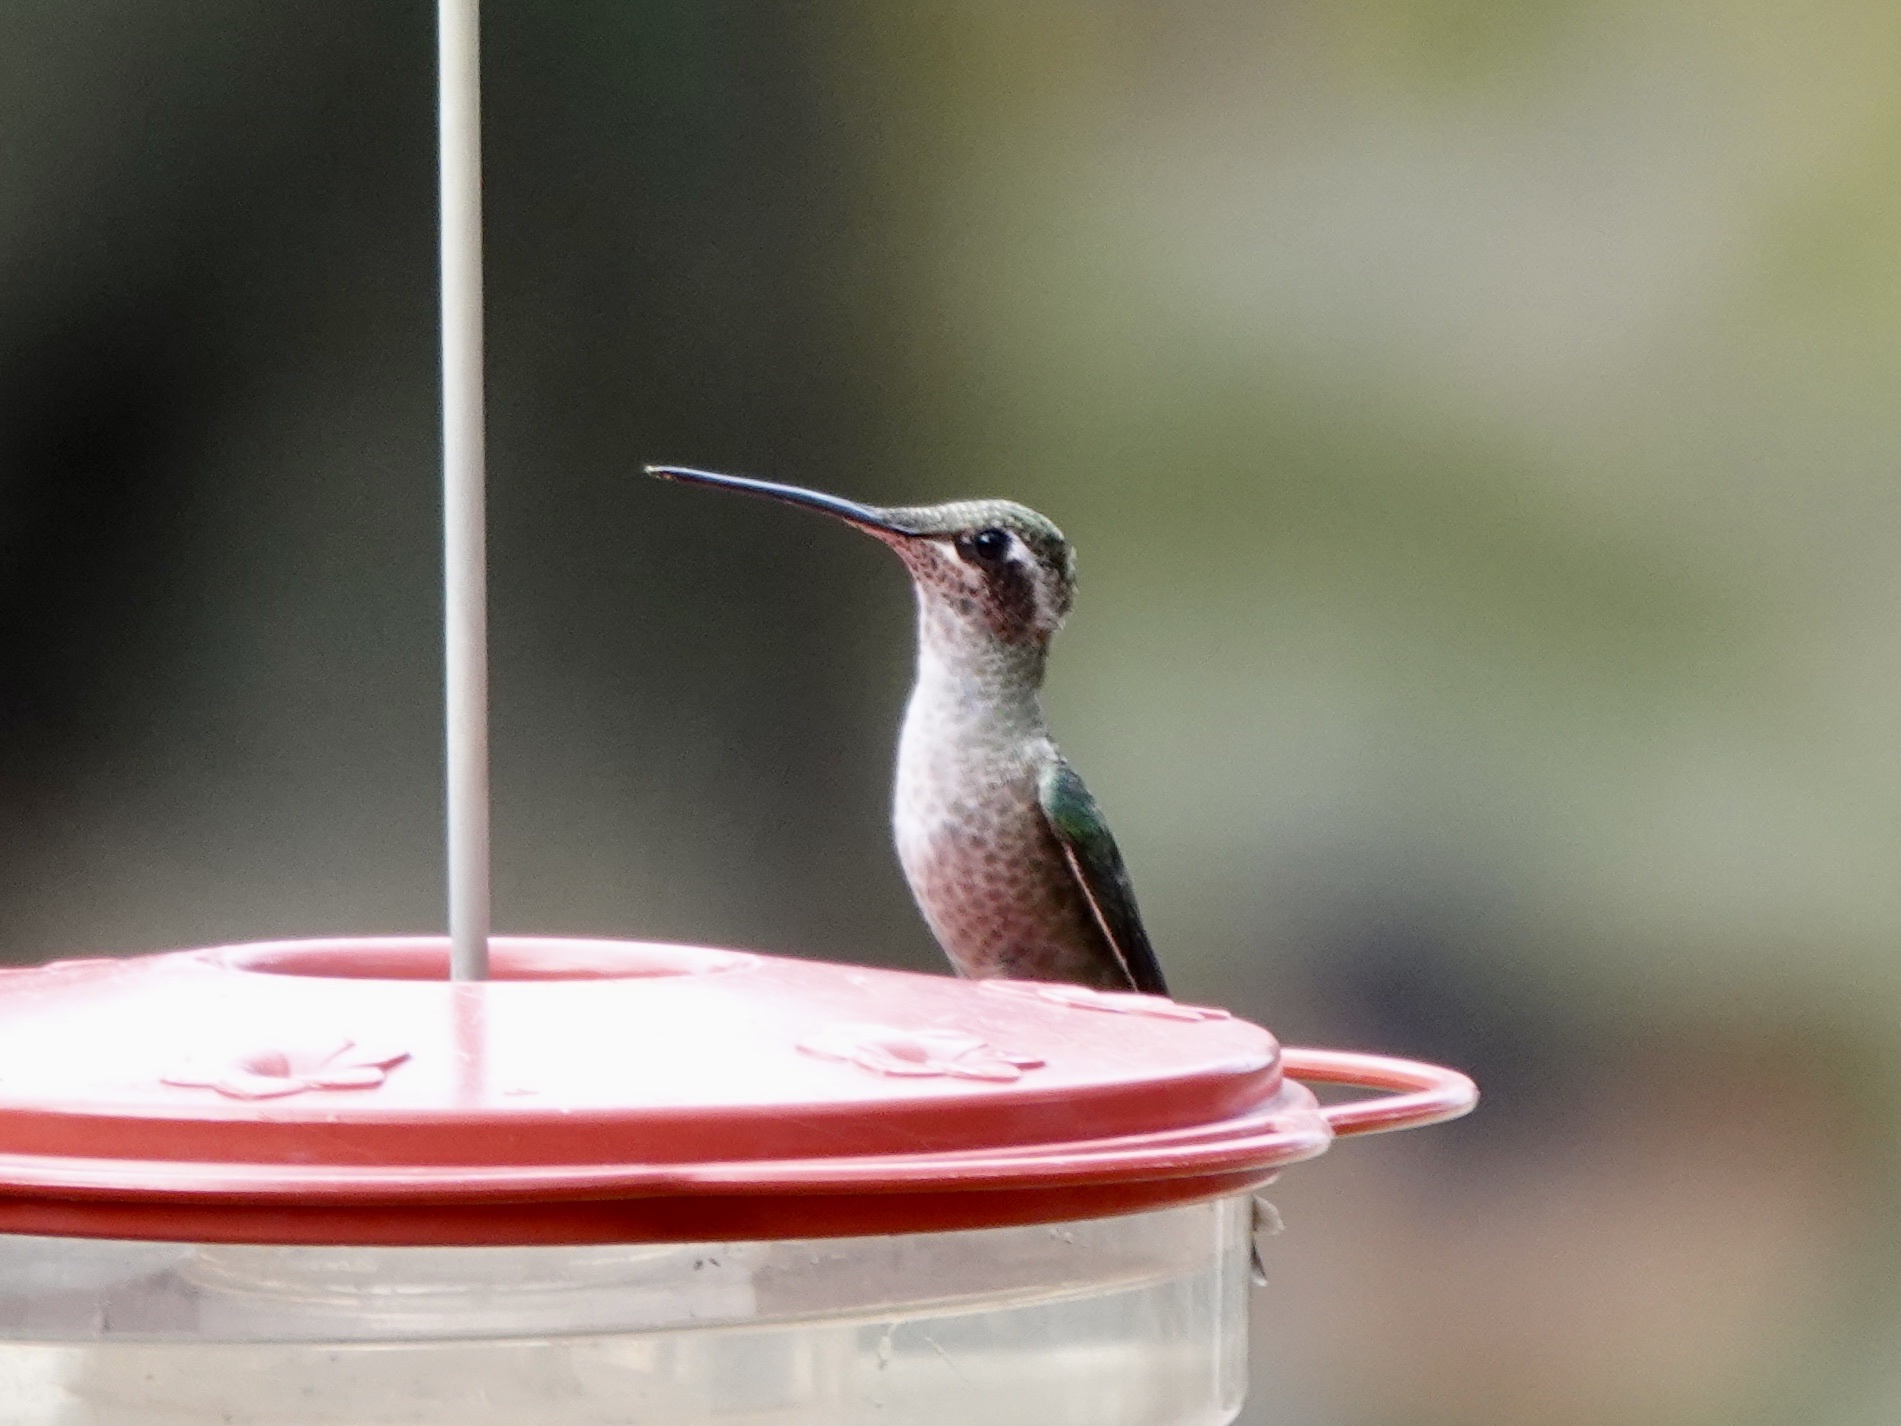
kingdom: Animalia
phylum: Chordata
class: Aves
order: Apodiformes
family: Trochilidae
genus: Eugenes
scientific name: Eugenes fulgens
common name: Magnificent hummingbird
